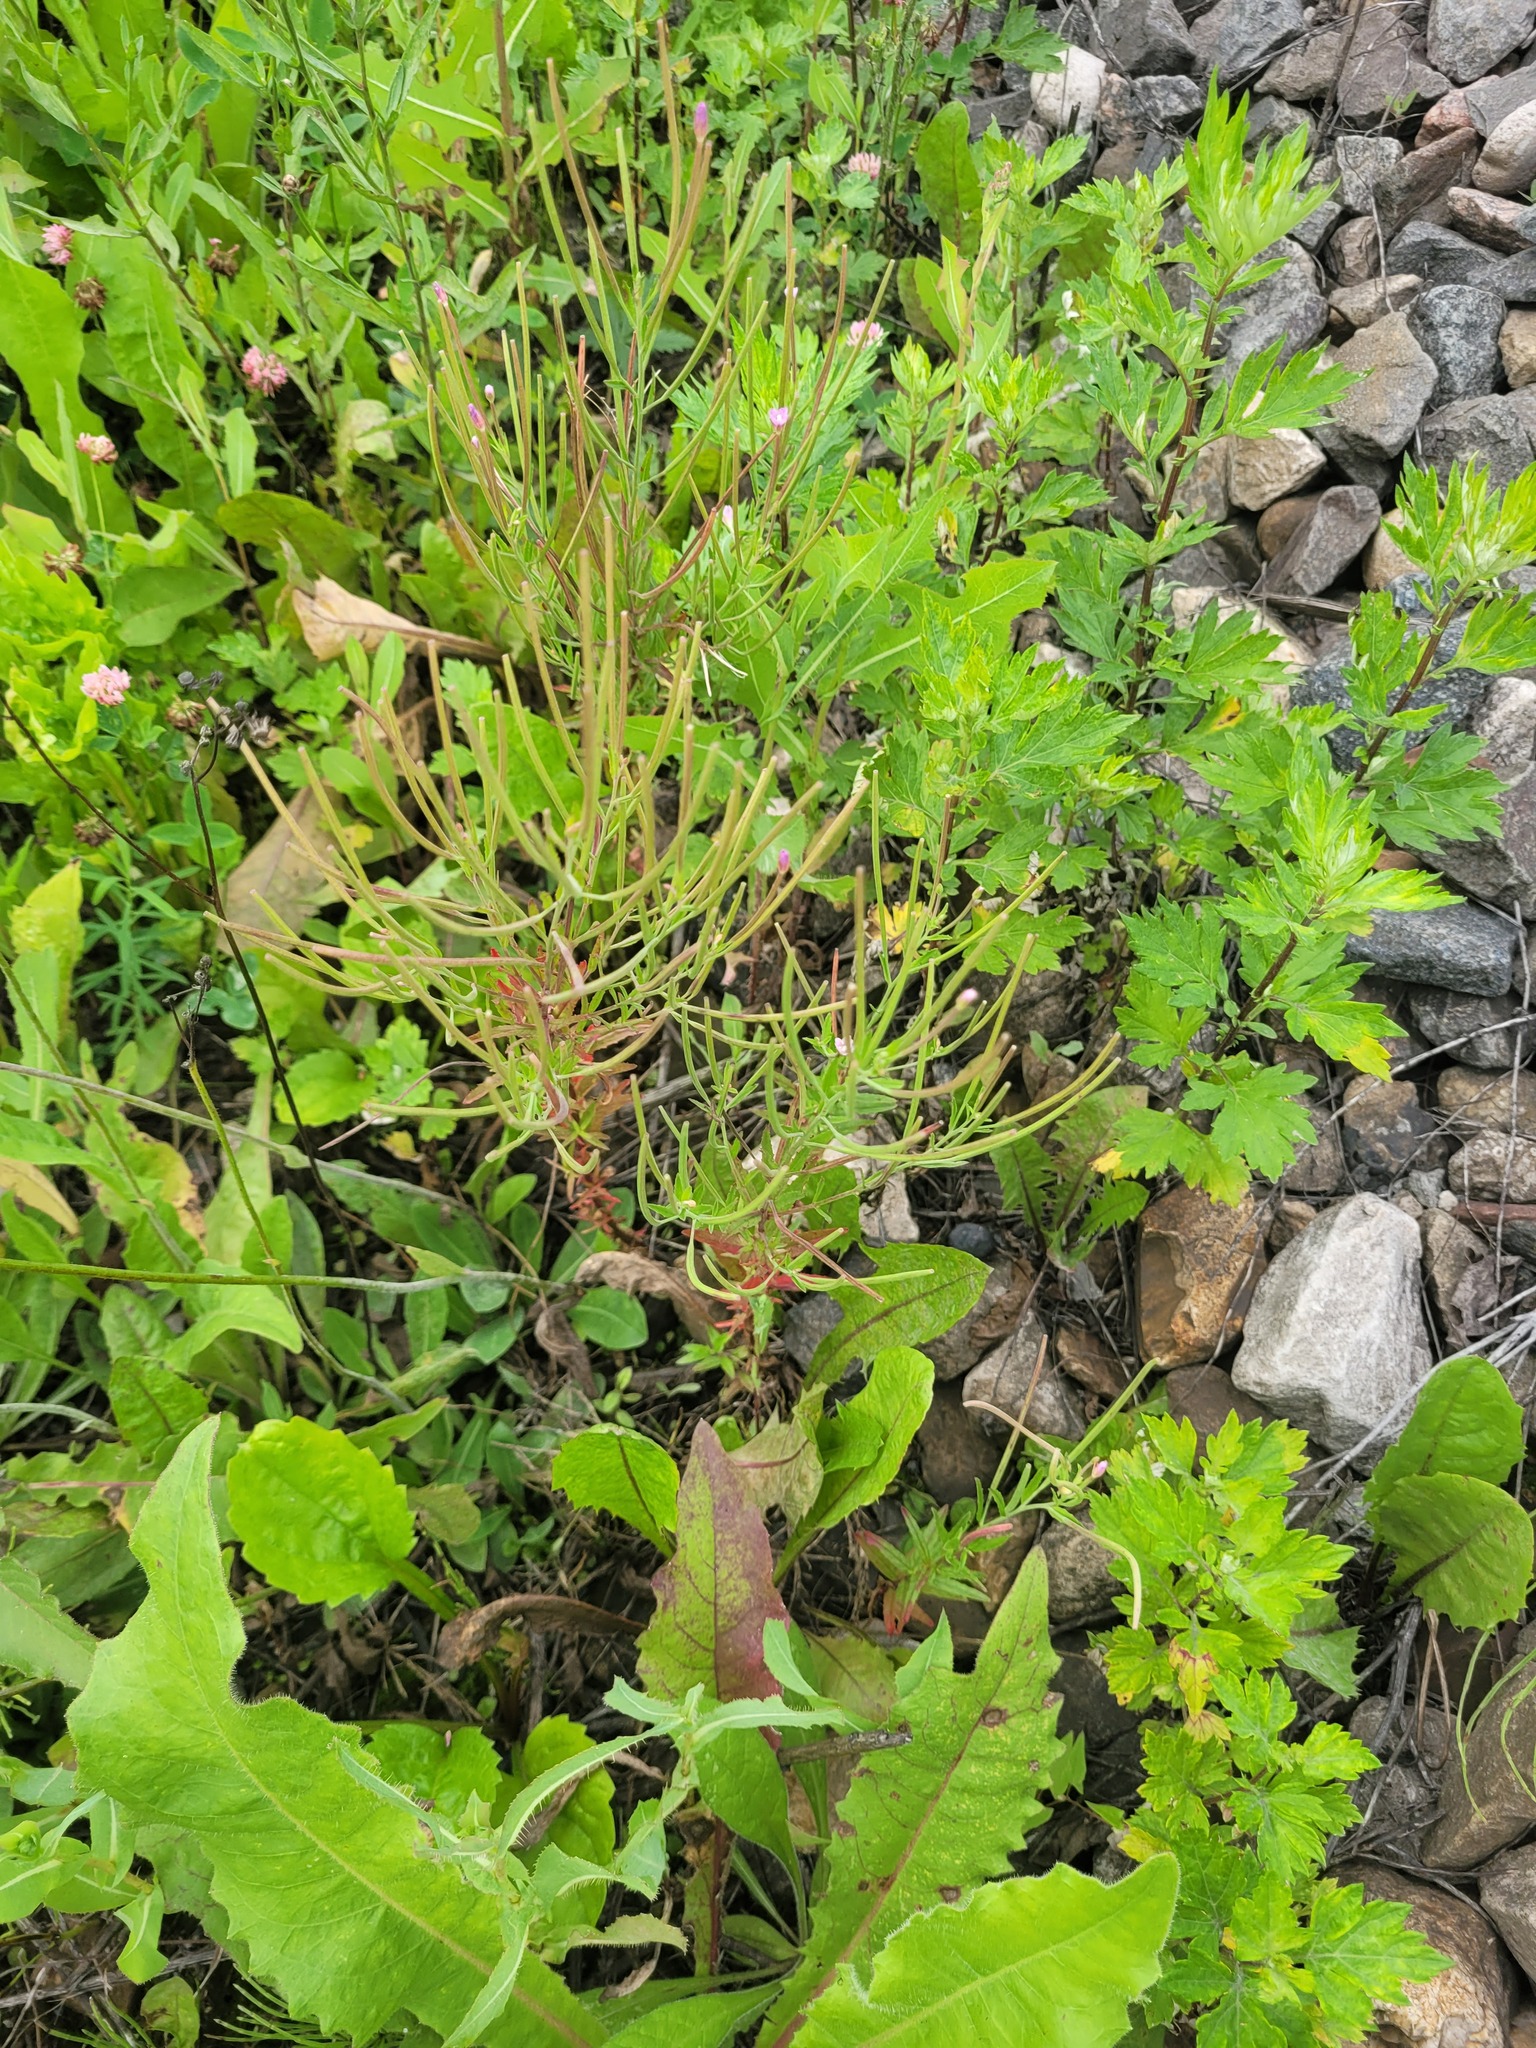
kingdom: Plantae
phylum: Tracheophyta
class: Magnoliopsida
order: Myrtales
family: Onagraceae
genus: Epilobium
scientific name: Epilobium lamyi
